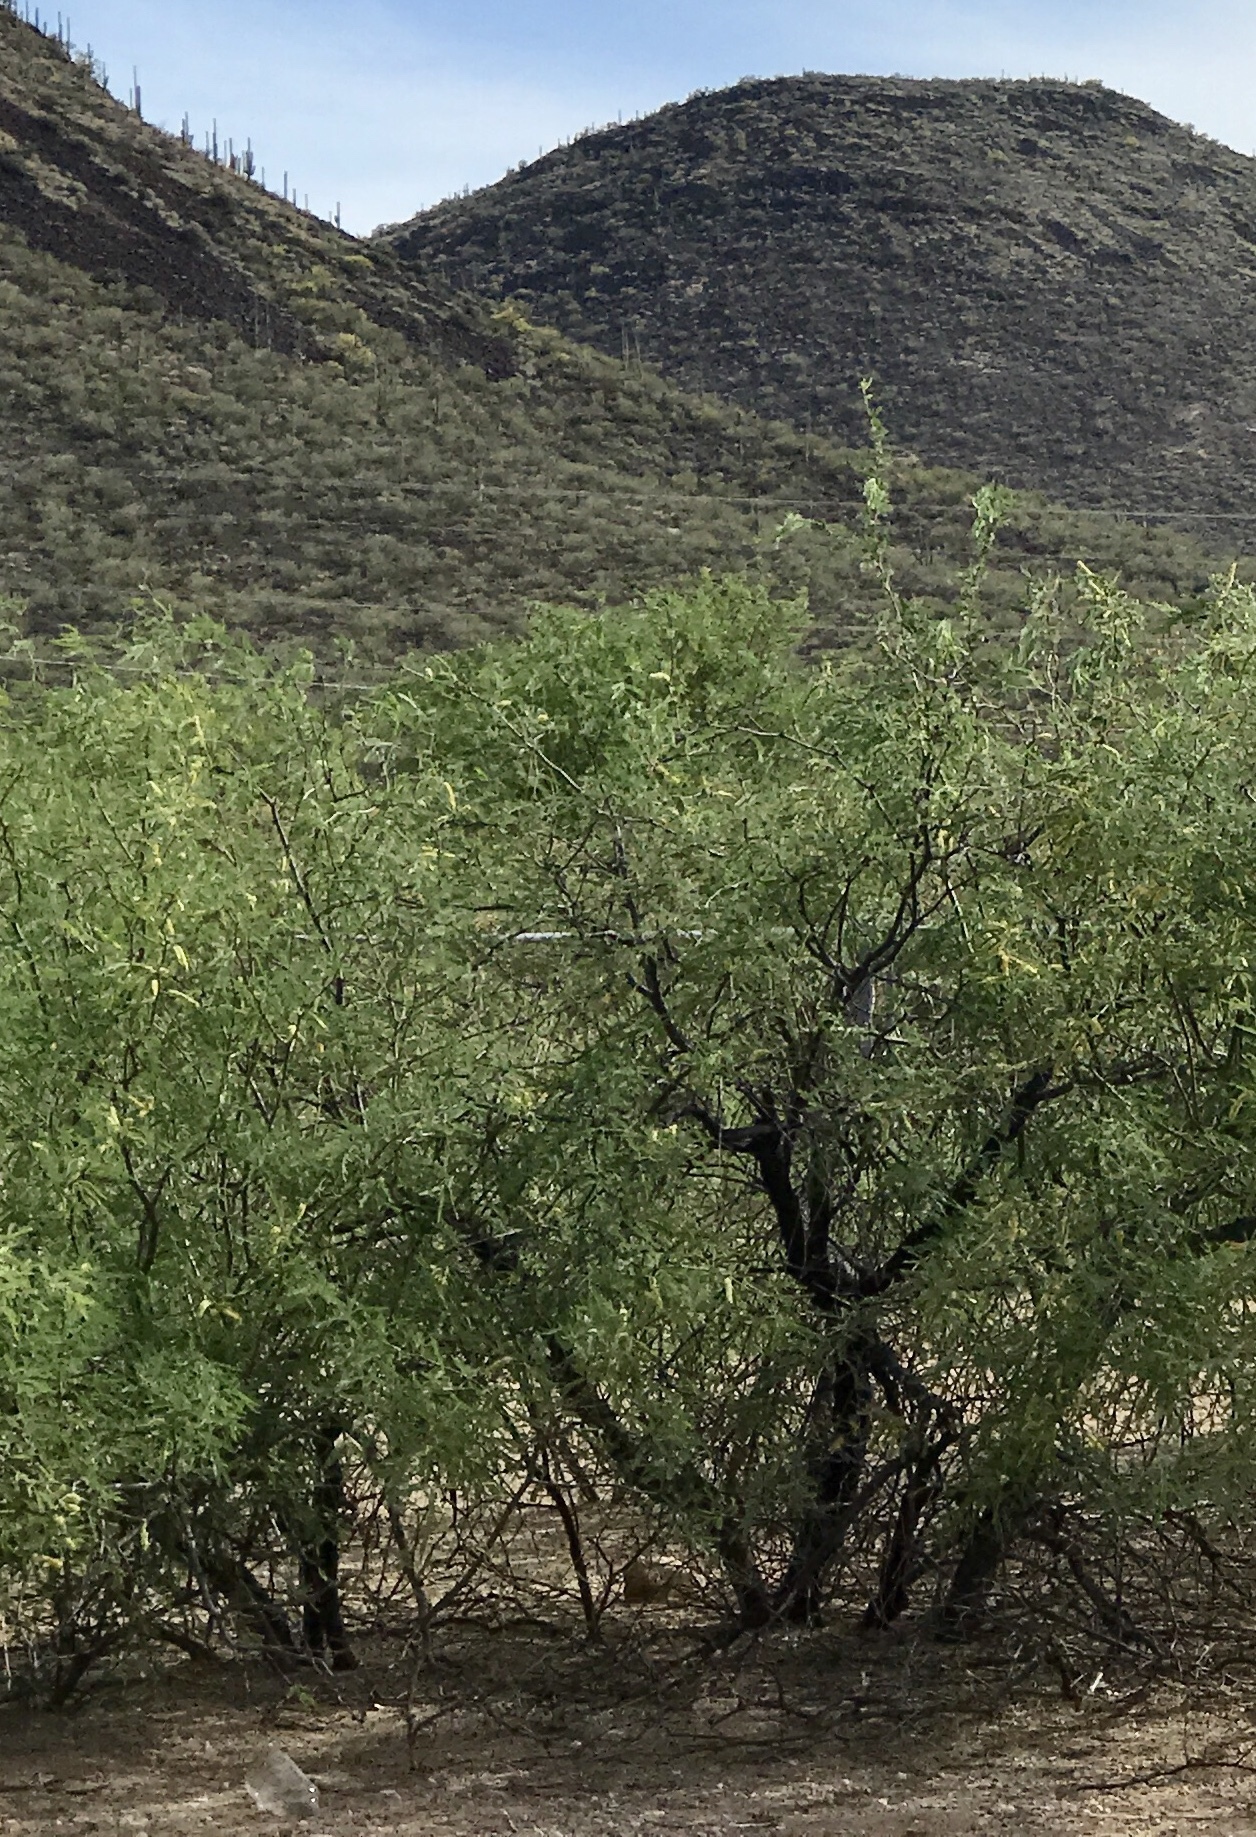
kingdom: Plantae
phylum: Tracheophyta
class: Magnoliopsida
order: Fabales
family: Fabaceae
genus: Prosopis
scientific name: Prosopis velutina
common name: Velvet mesquite
